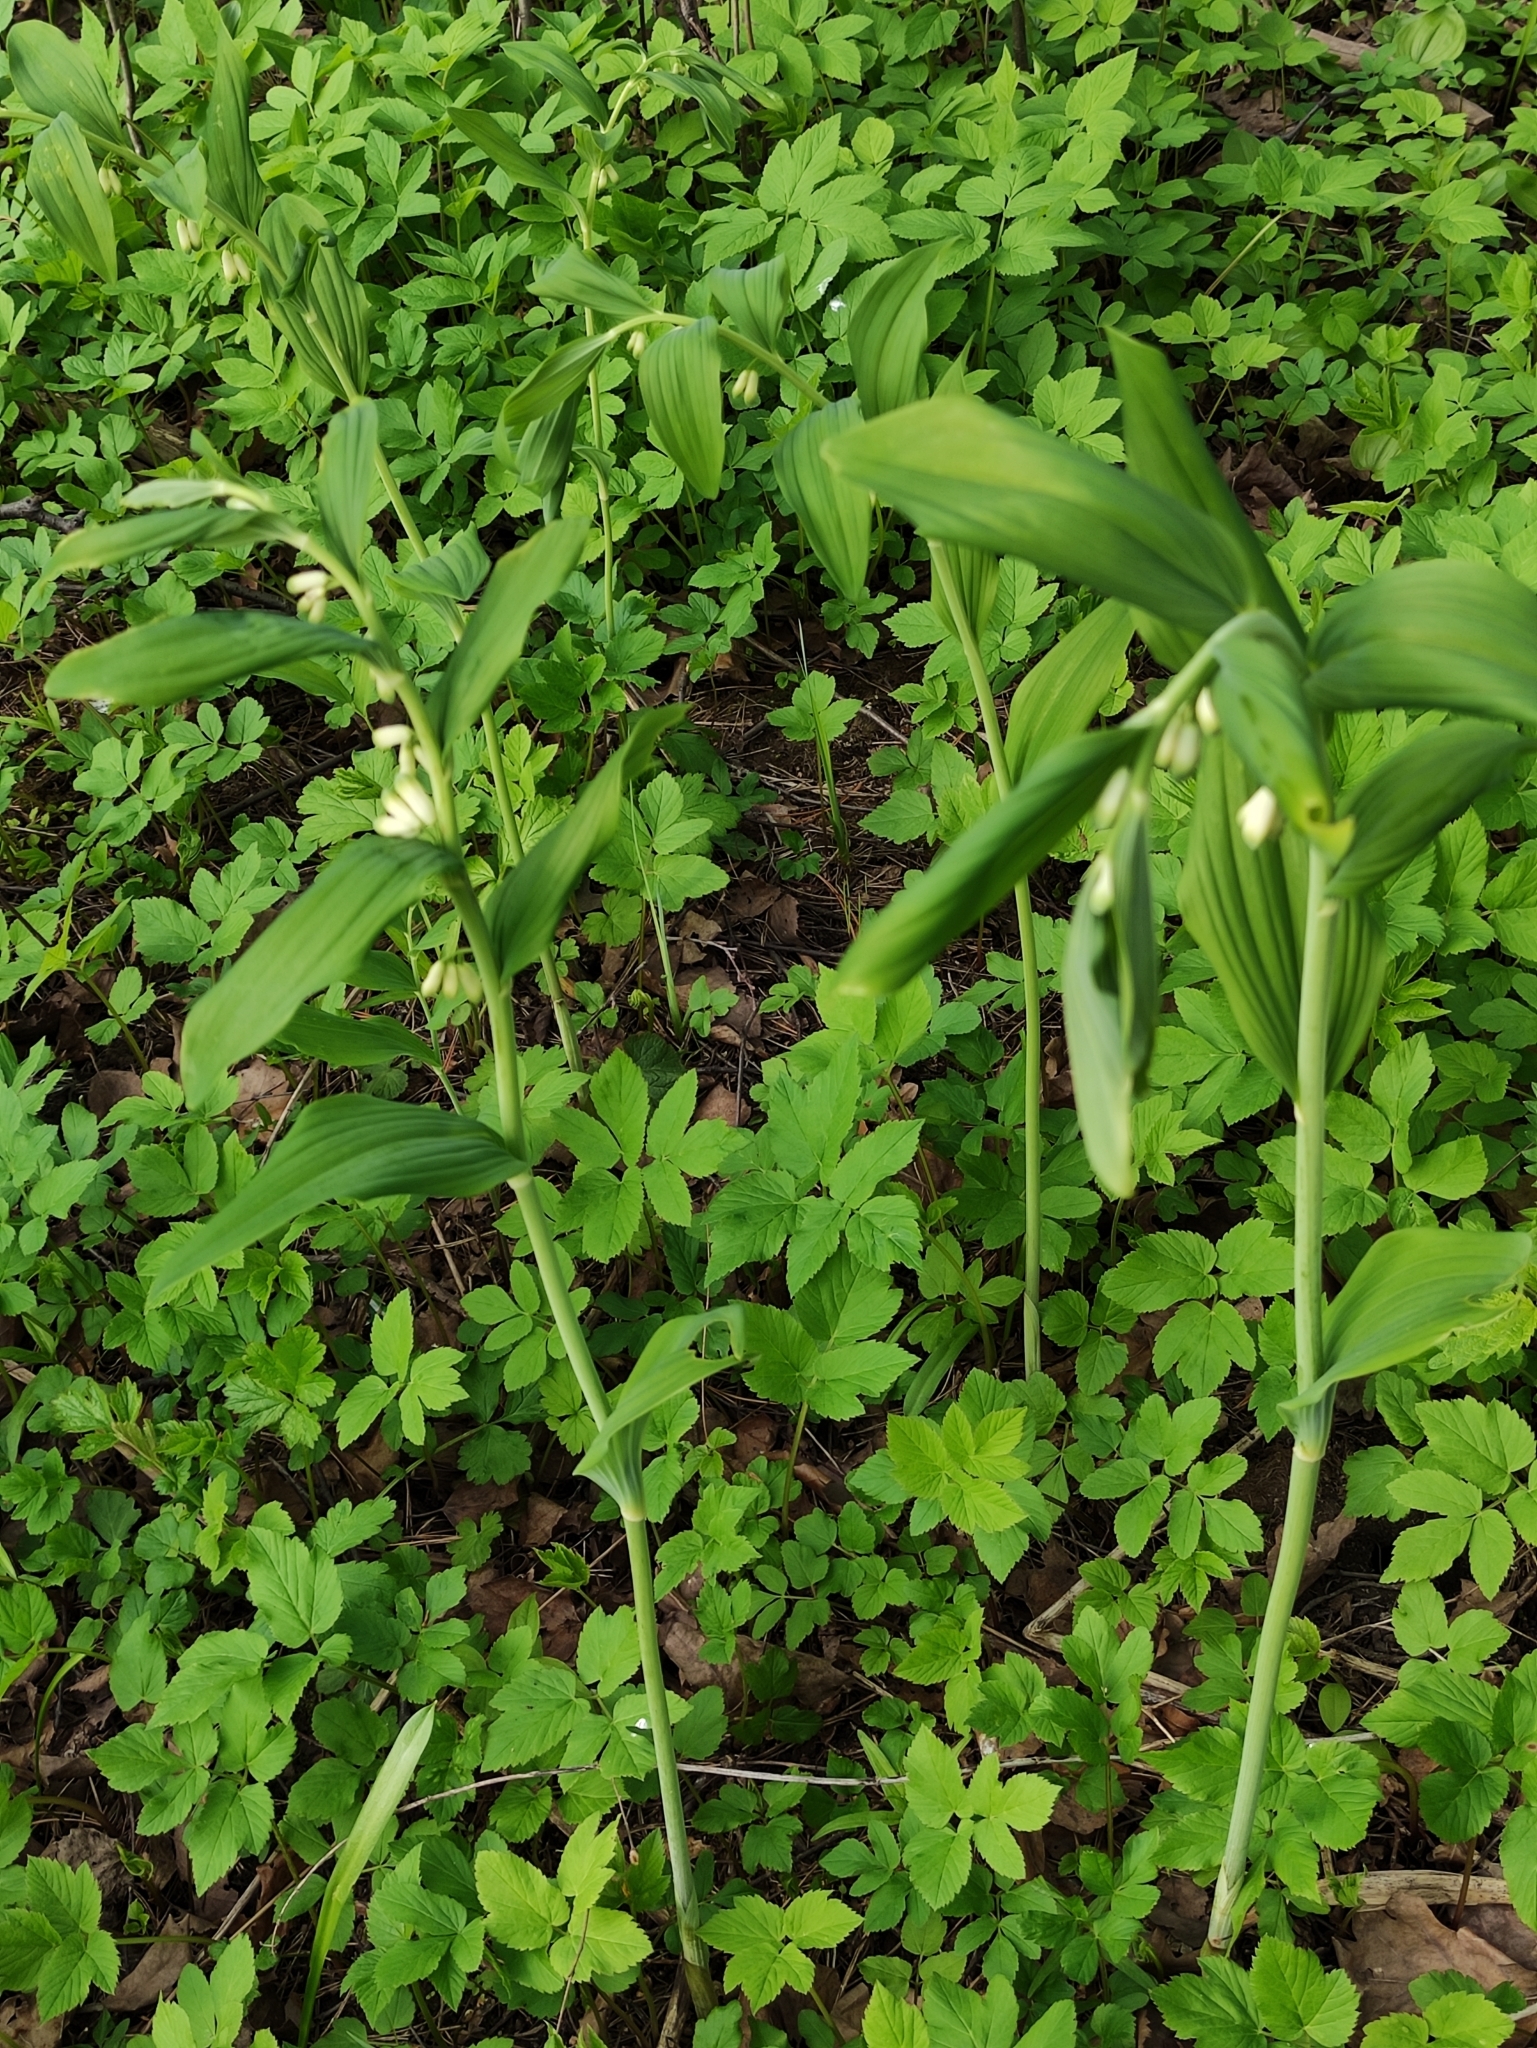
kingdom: Plantae
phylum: Tracheophyta
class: Liliopsida
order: Asparagales
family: Asparagaceae
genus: Polygonatum
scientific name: Polygonatum multiflorum
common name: Solomon's-seal
